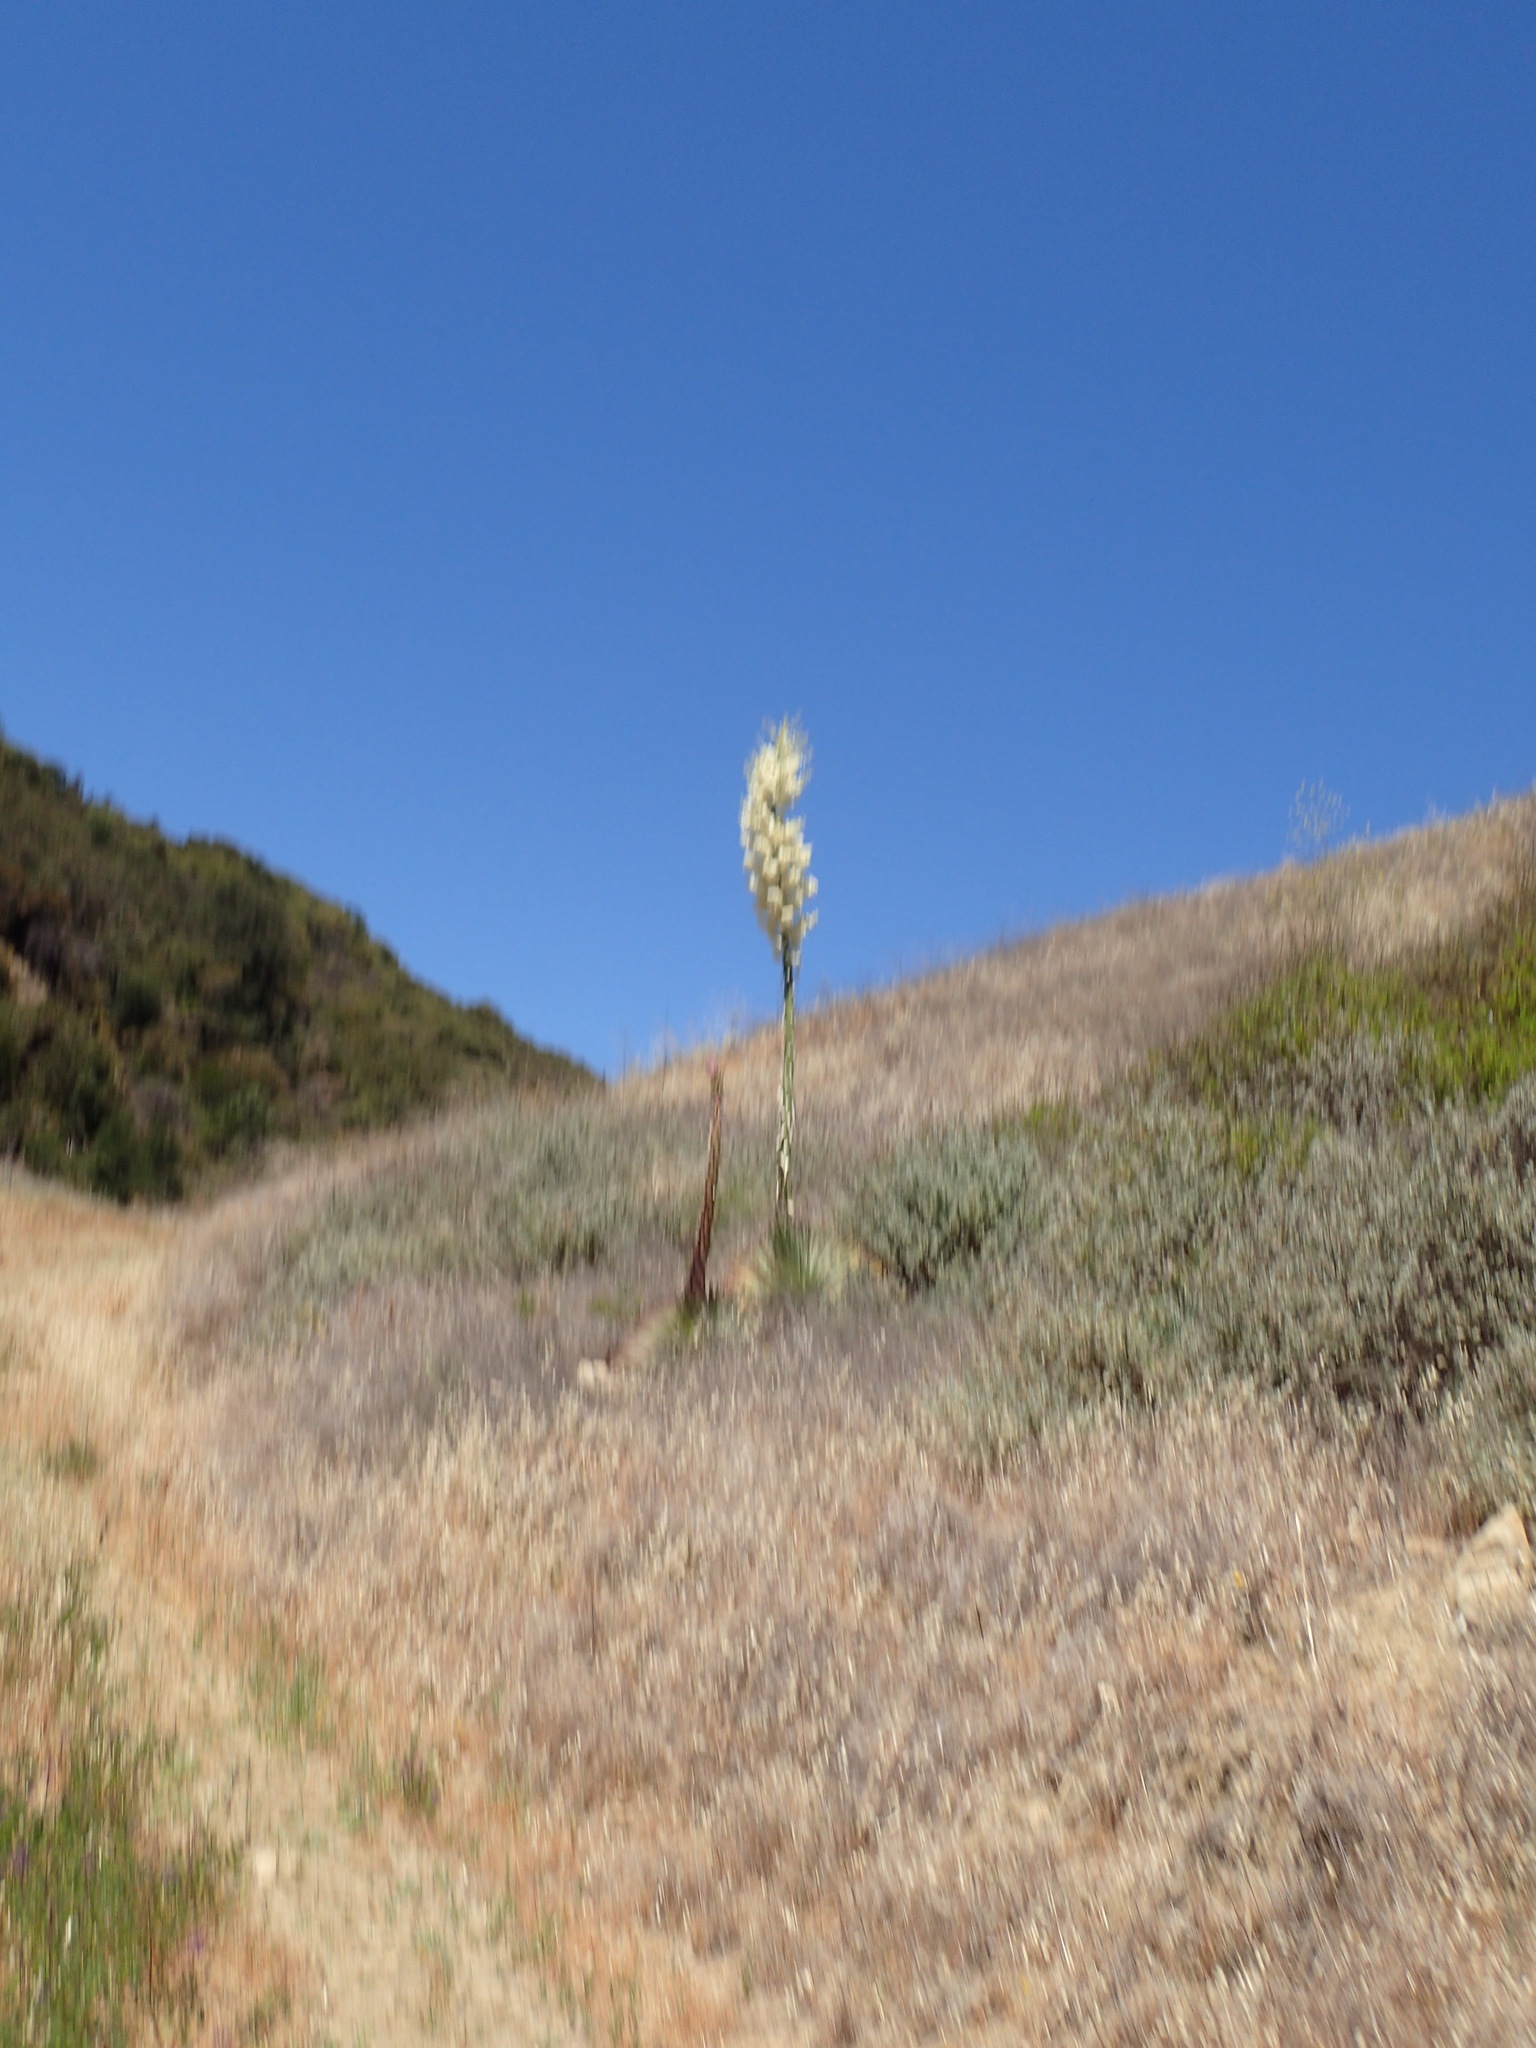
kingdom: Plantae
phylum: Tracheophyta
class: Liliopsida
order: Asparagales
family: Asparagaceae
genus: Hesperoyucca
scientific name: Hesperoyucca whipplei
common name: Our lord's-candle
